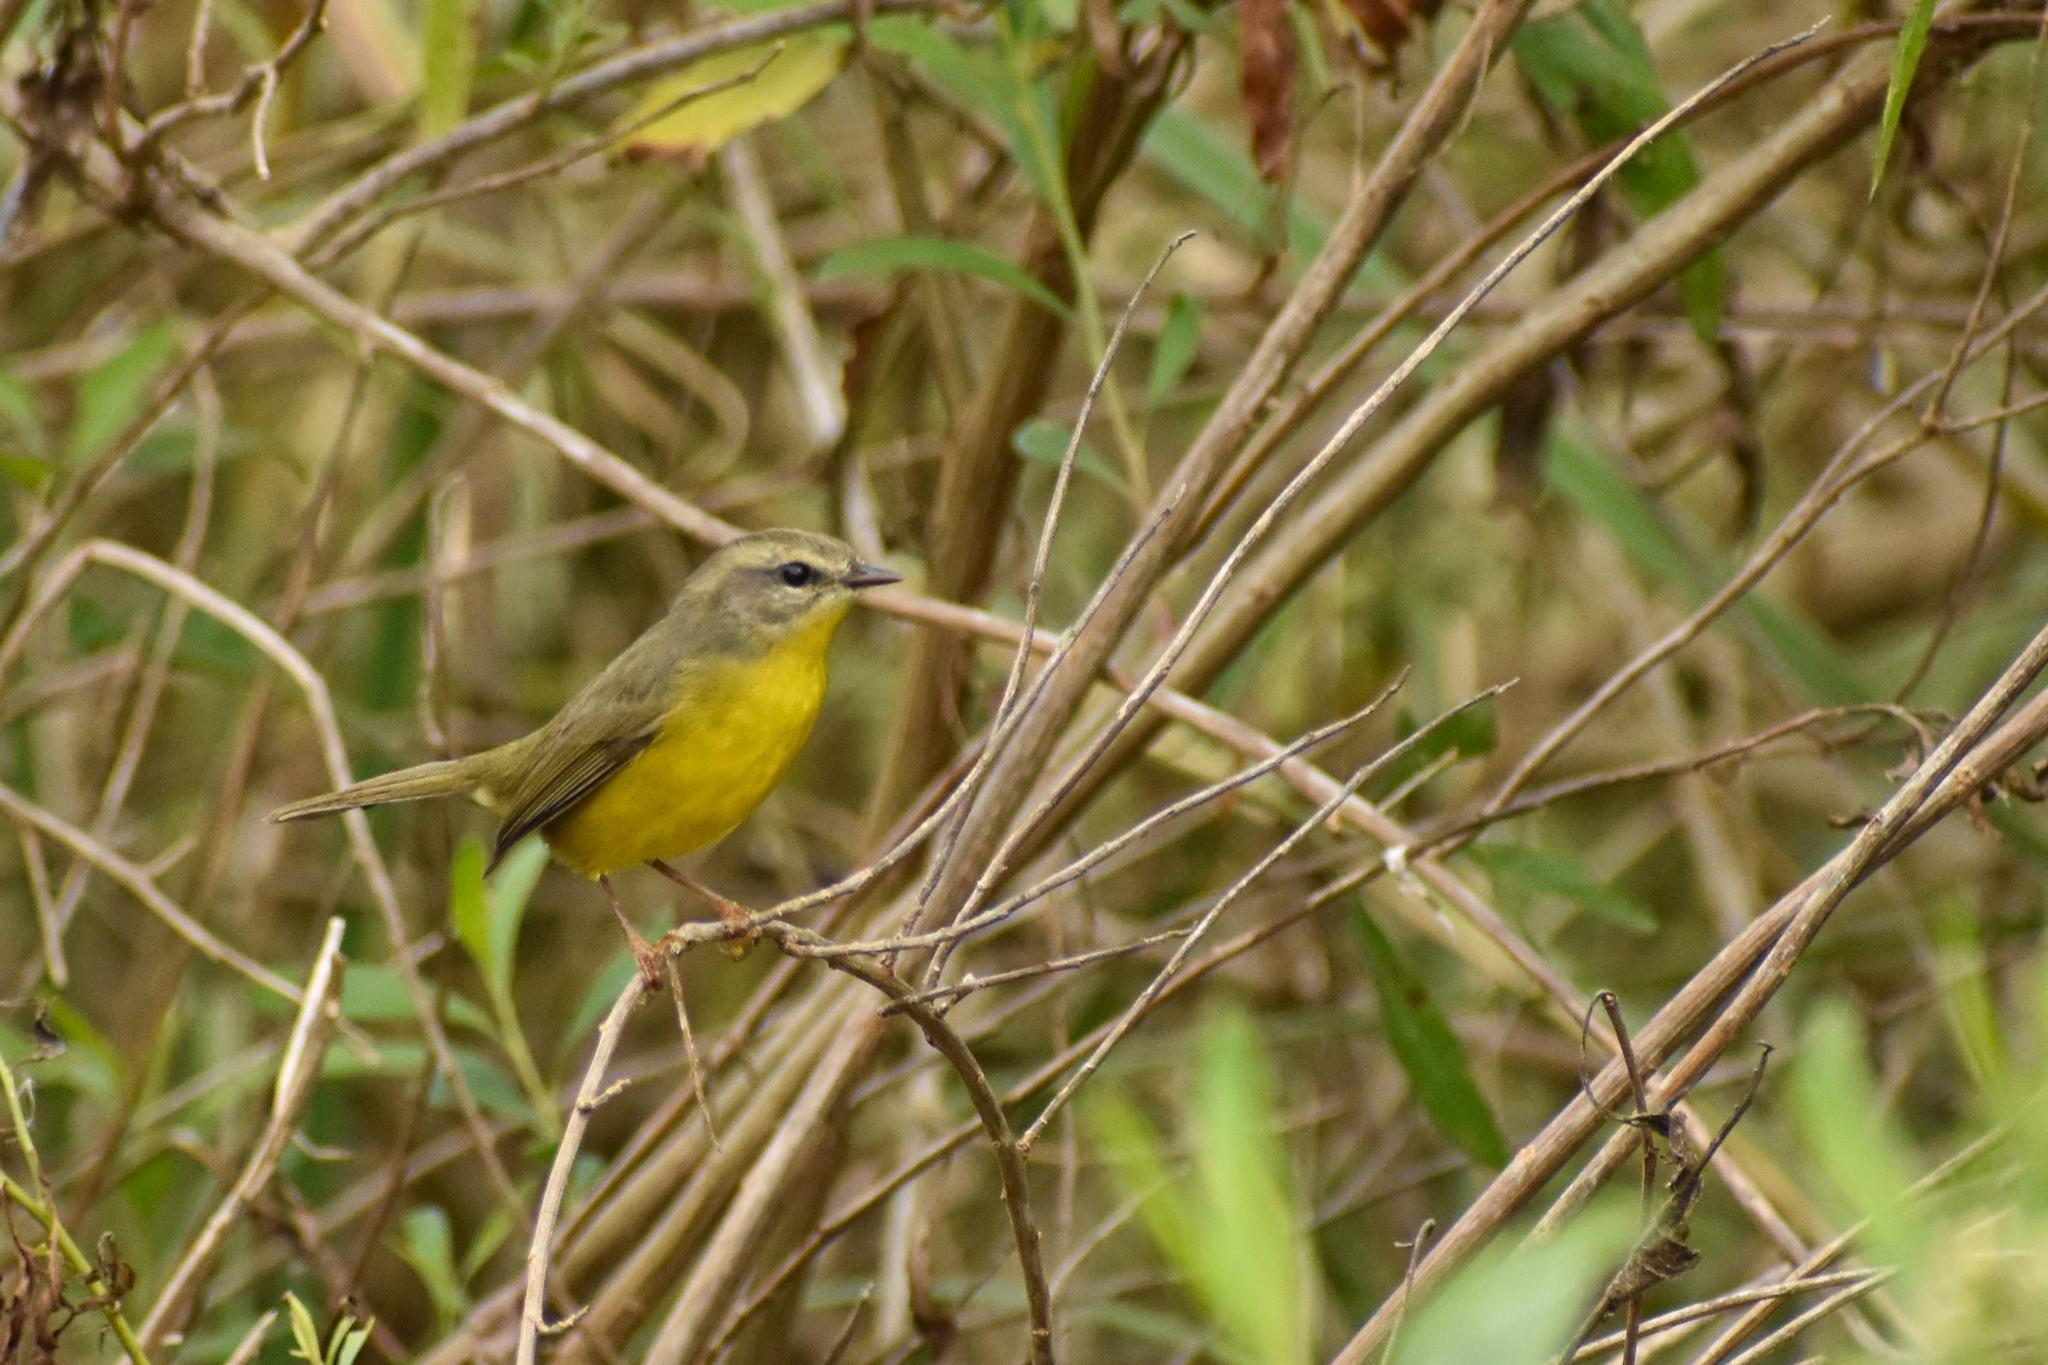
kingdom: Animalia
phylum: Chordata
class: Aves
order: Passeriformes
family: Parulidae
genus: Basileuterus
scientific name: Basileuterus culicivorus
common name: Golden-crowned warbler
